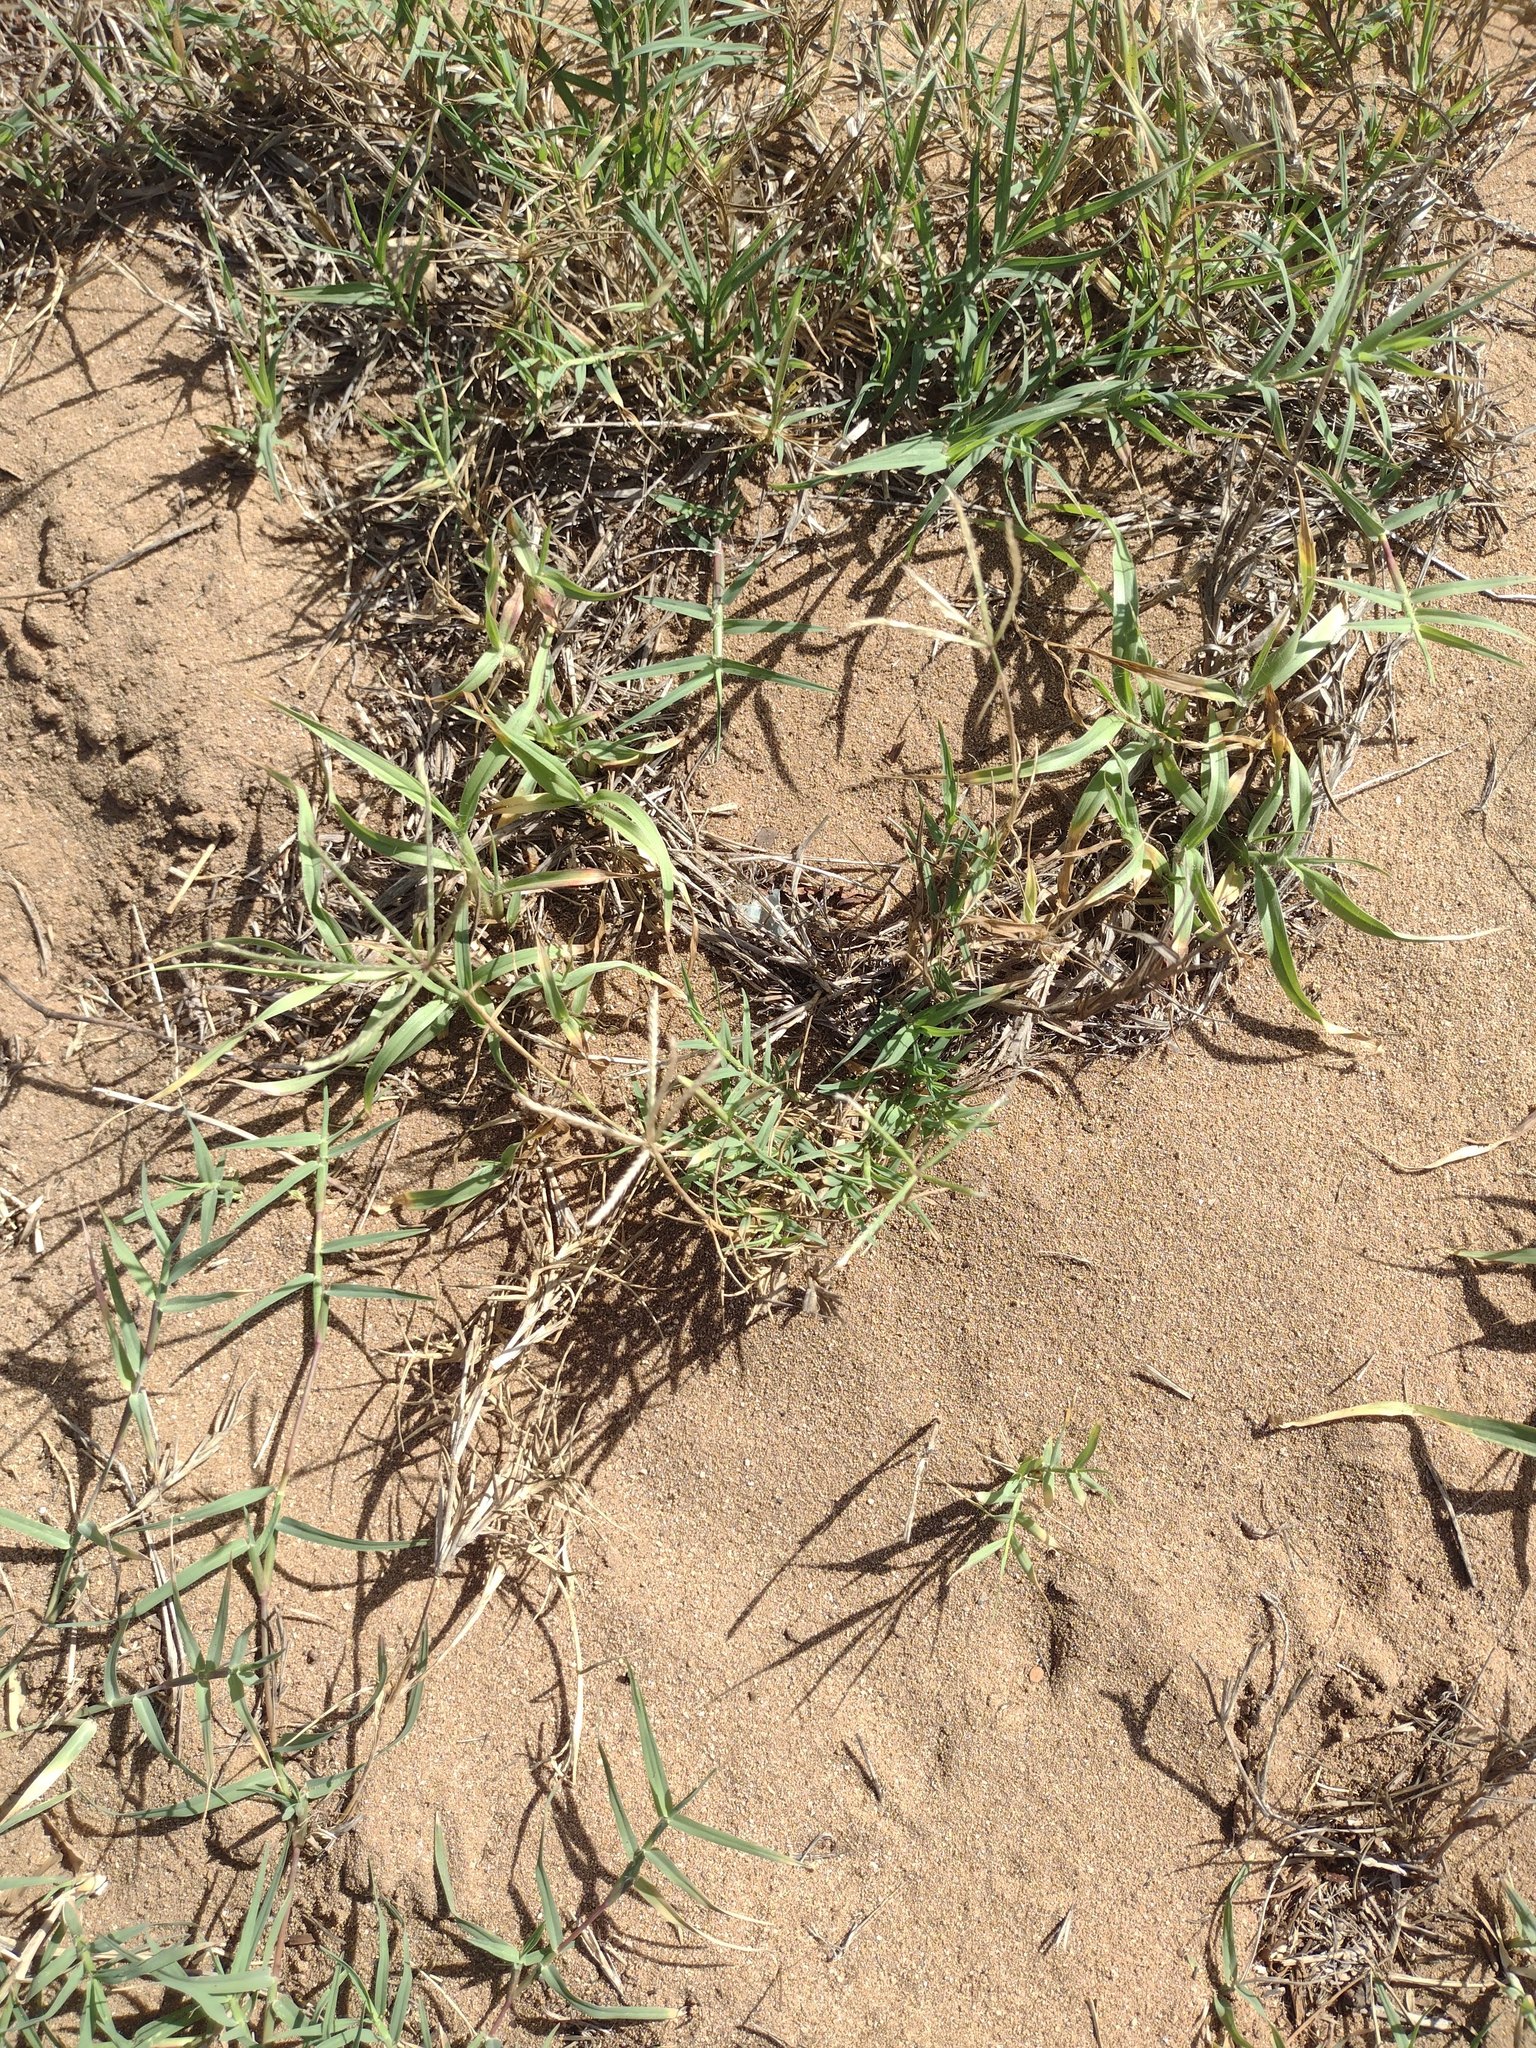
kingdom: Plantae
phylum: Tracheophyta
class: Liliopsida
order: Poales
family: Poaceae
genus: Cynodon
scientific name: Cynodon dactylon
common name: Bermuda grass
